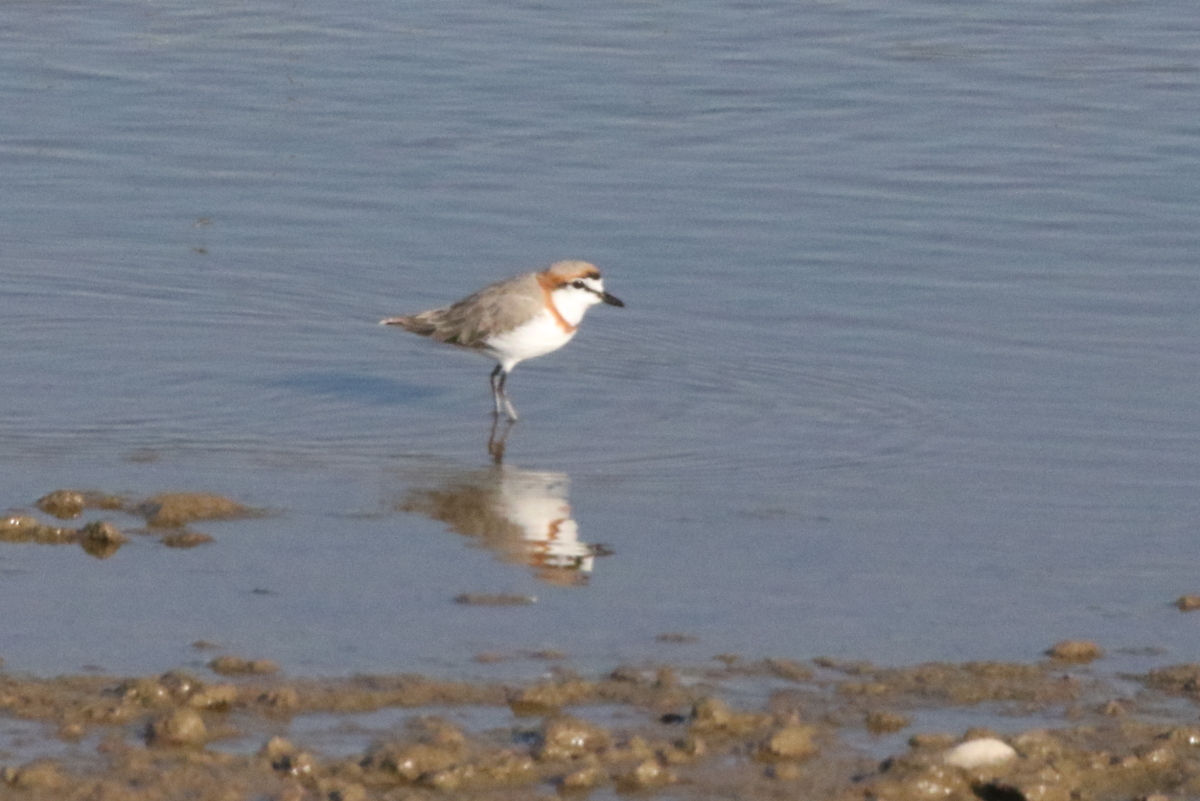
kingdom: Animalia
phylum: Chordata
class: Aves
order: Charadriiformes
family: Charadriidae
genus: Anarhynchus
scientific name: Anarhynchus
